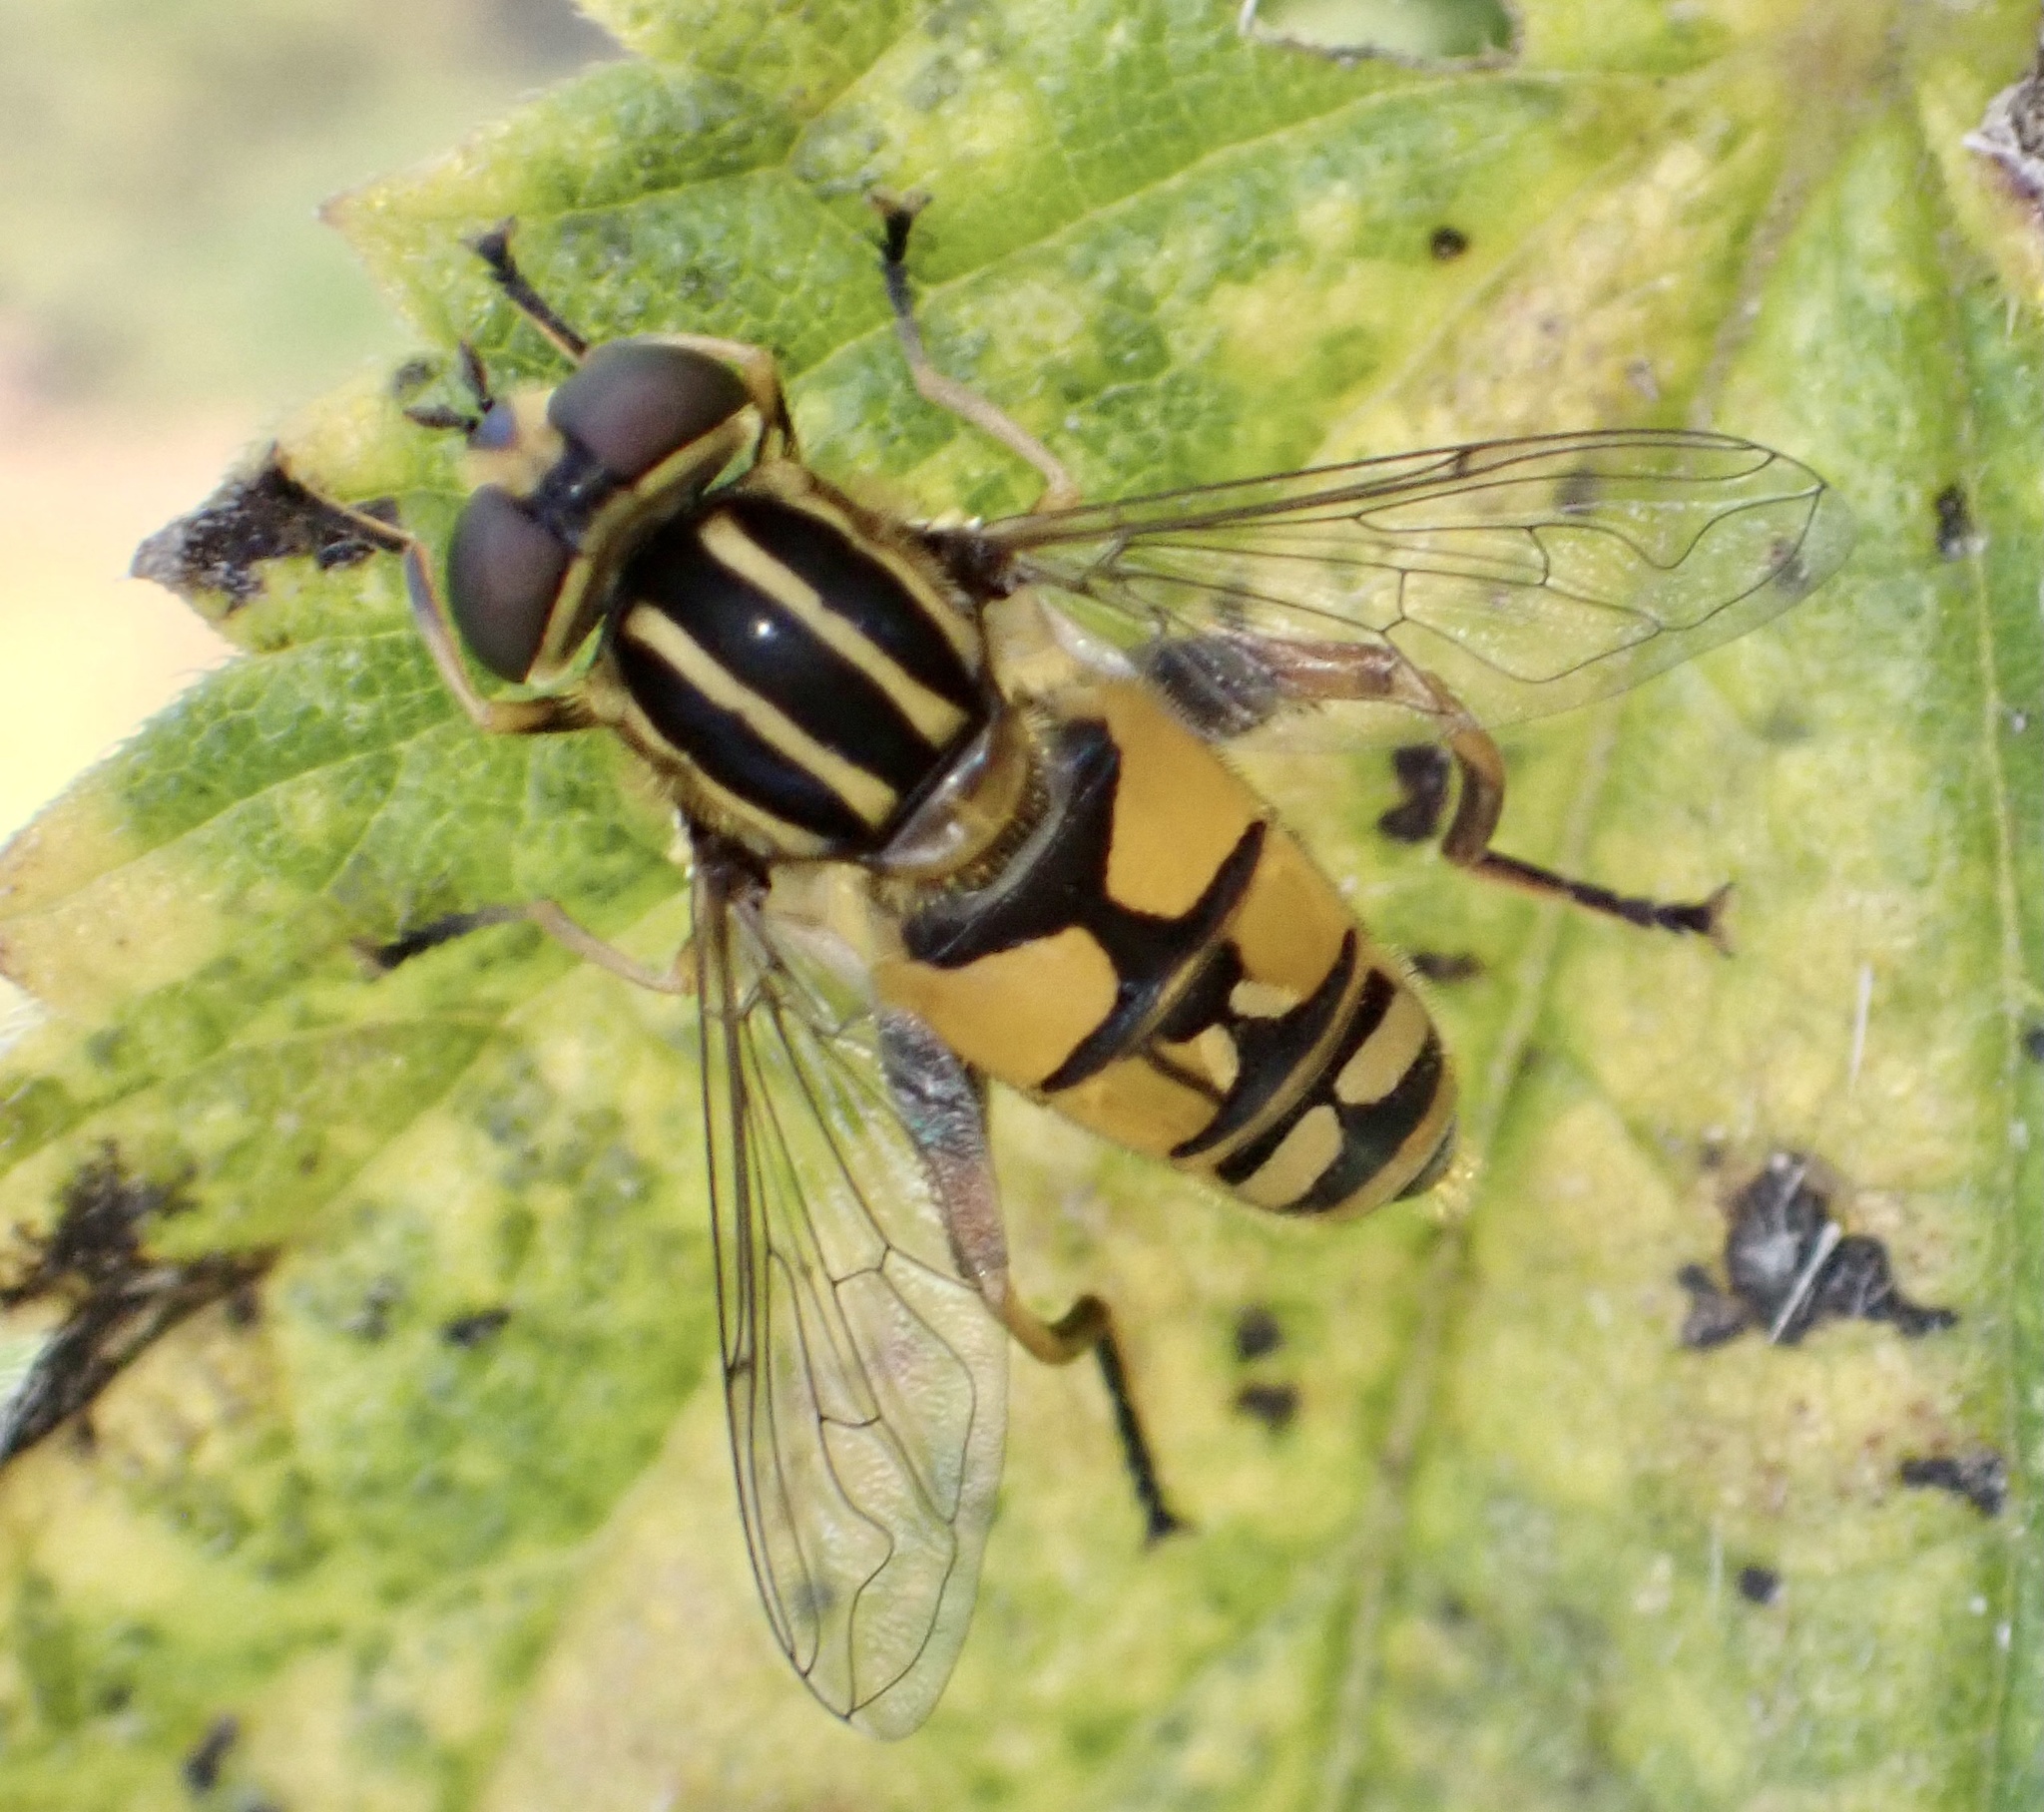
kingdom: Animalia
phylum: Arthropoda
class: Insecta
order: Diptera
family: Syrphidae
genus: Helophilus
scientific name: Helophilus pendulus
